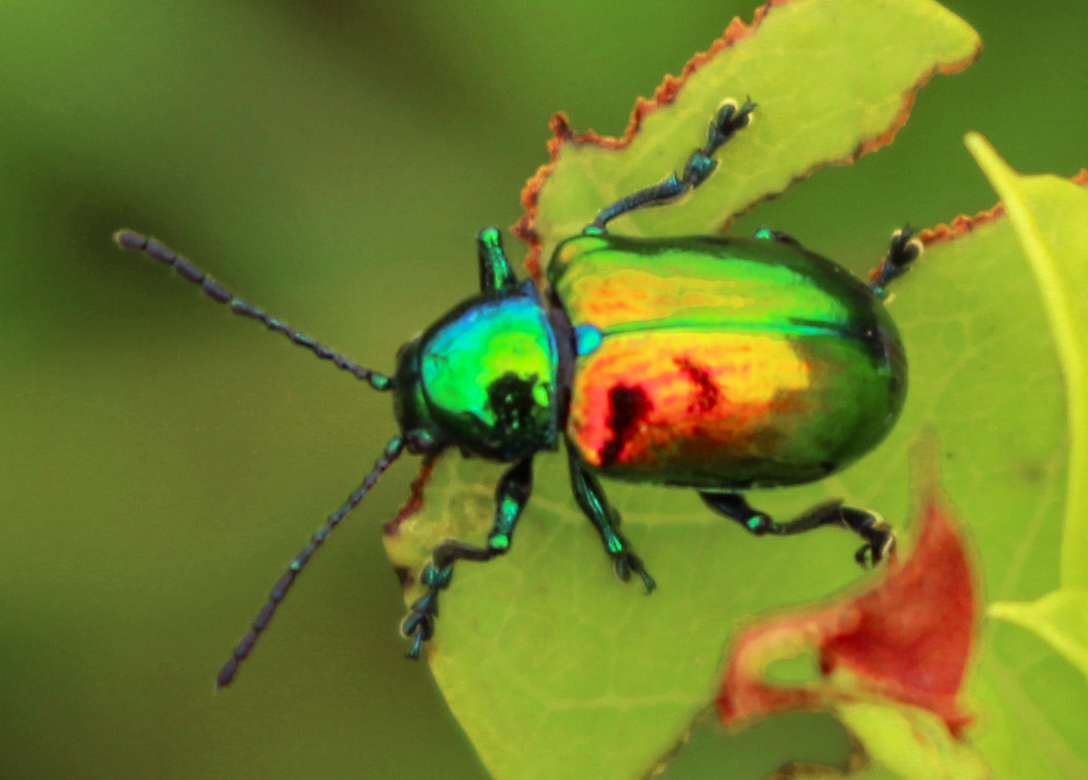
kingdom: Animalia
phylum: Arthropoda
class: Insecta
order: Coleoptera
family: Chrysomelidae
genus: Chrysochus
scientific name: Chrysochus auratus
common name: Dogbane leaf beetle
